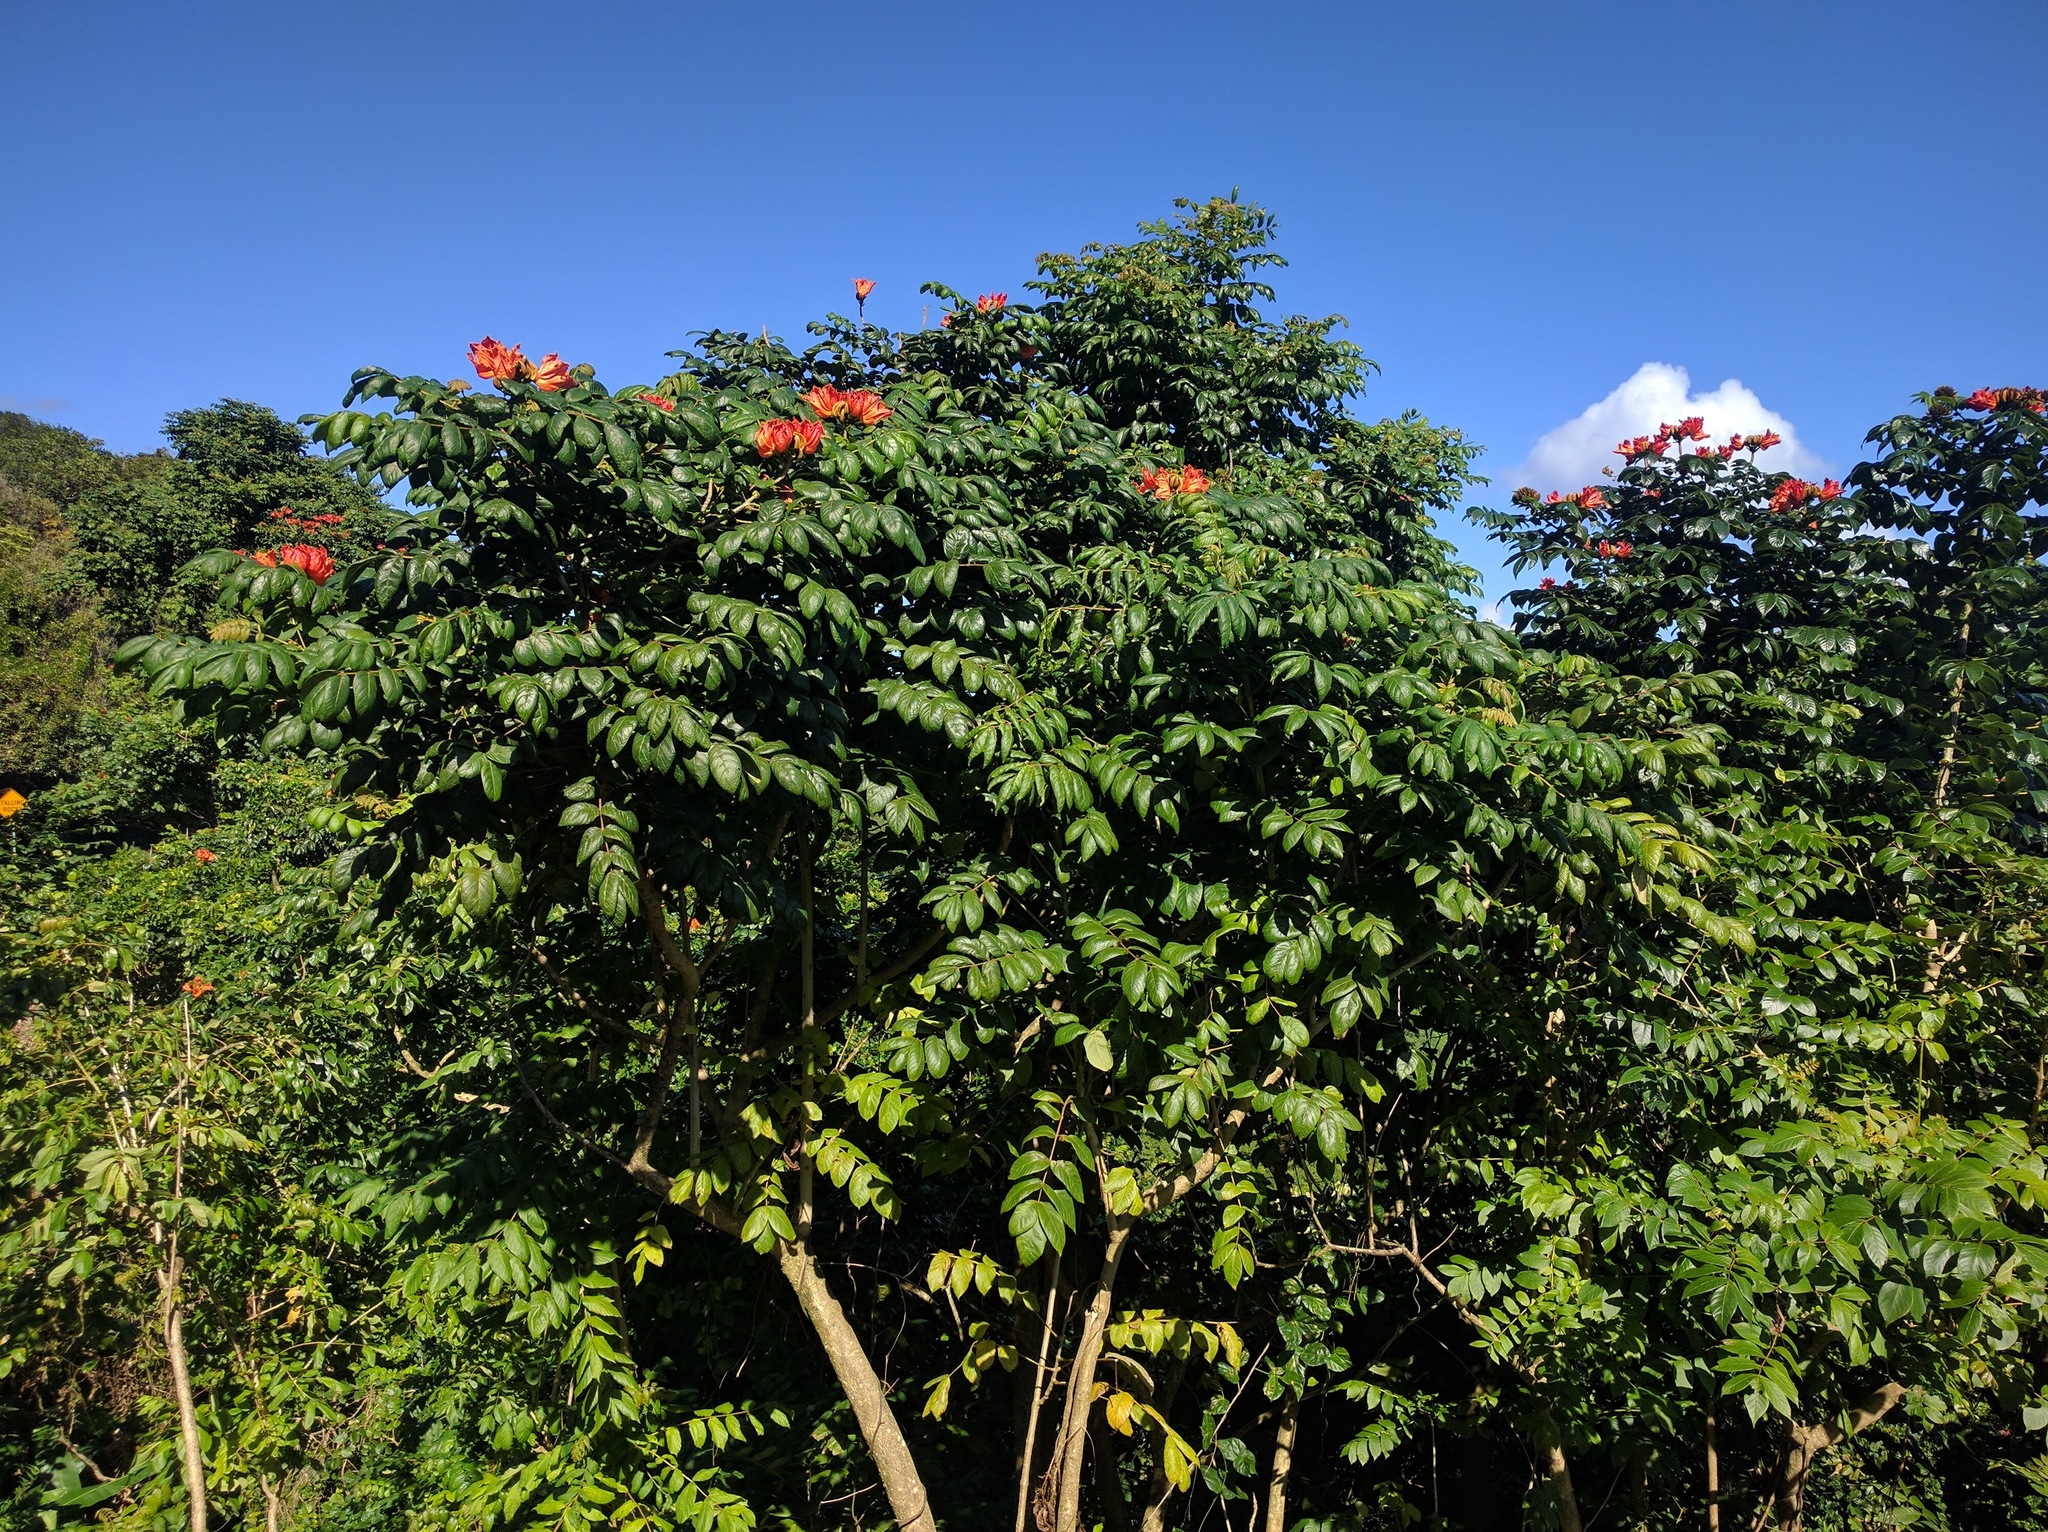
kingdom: Plantae
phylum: Tracheophyta
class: Magnoliopsida
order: Lamiales
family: Bignoniaceae
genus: Spathodea
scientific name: Spathodea campanulata
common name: African tuliptree
